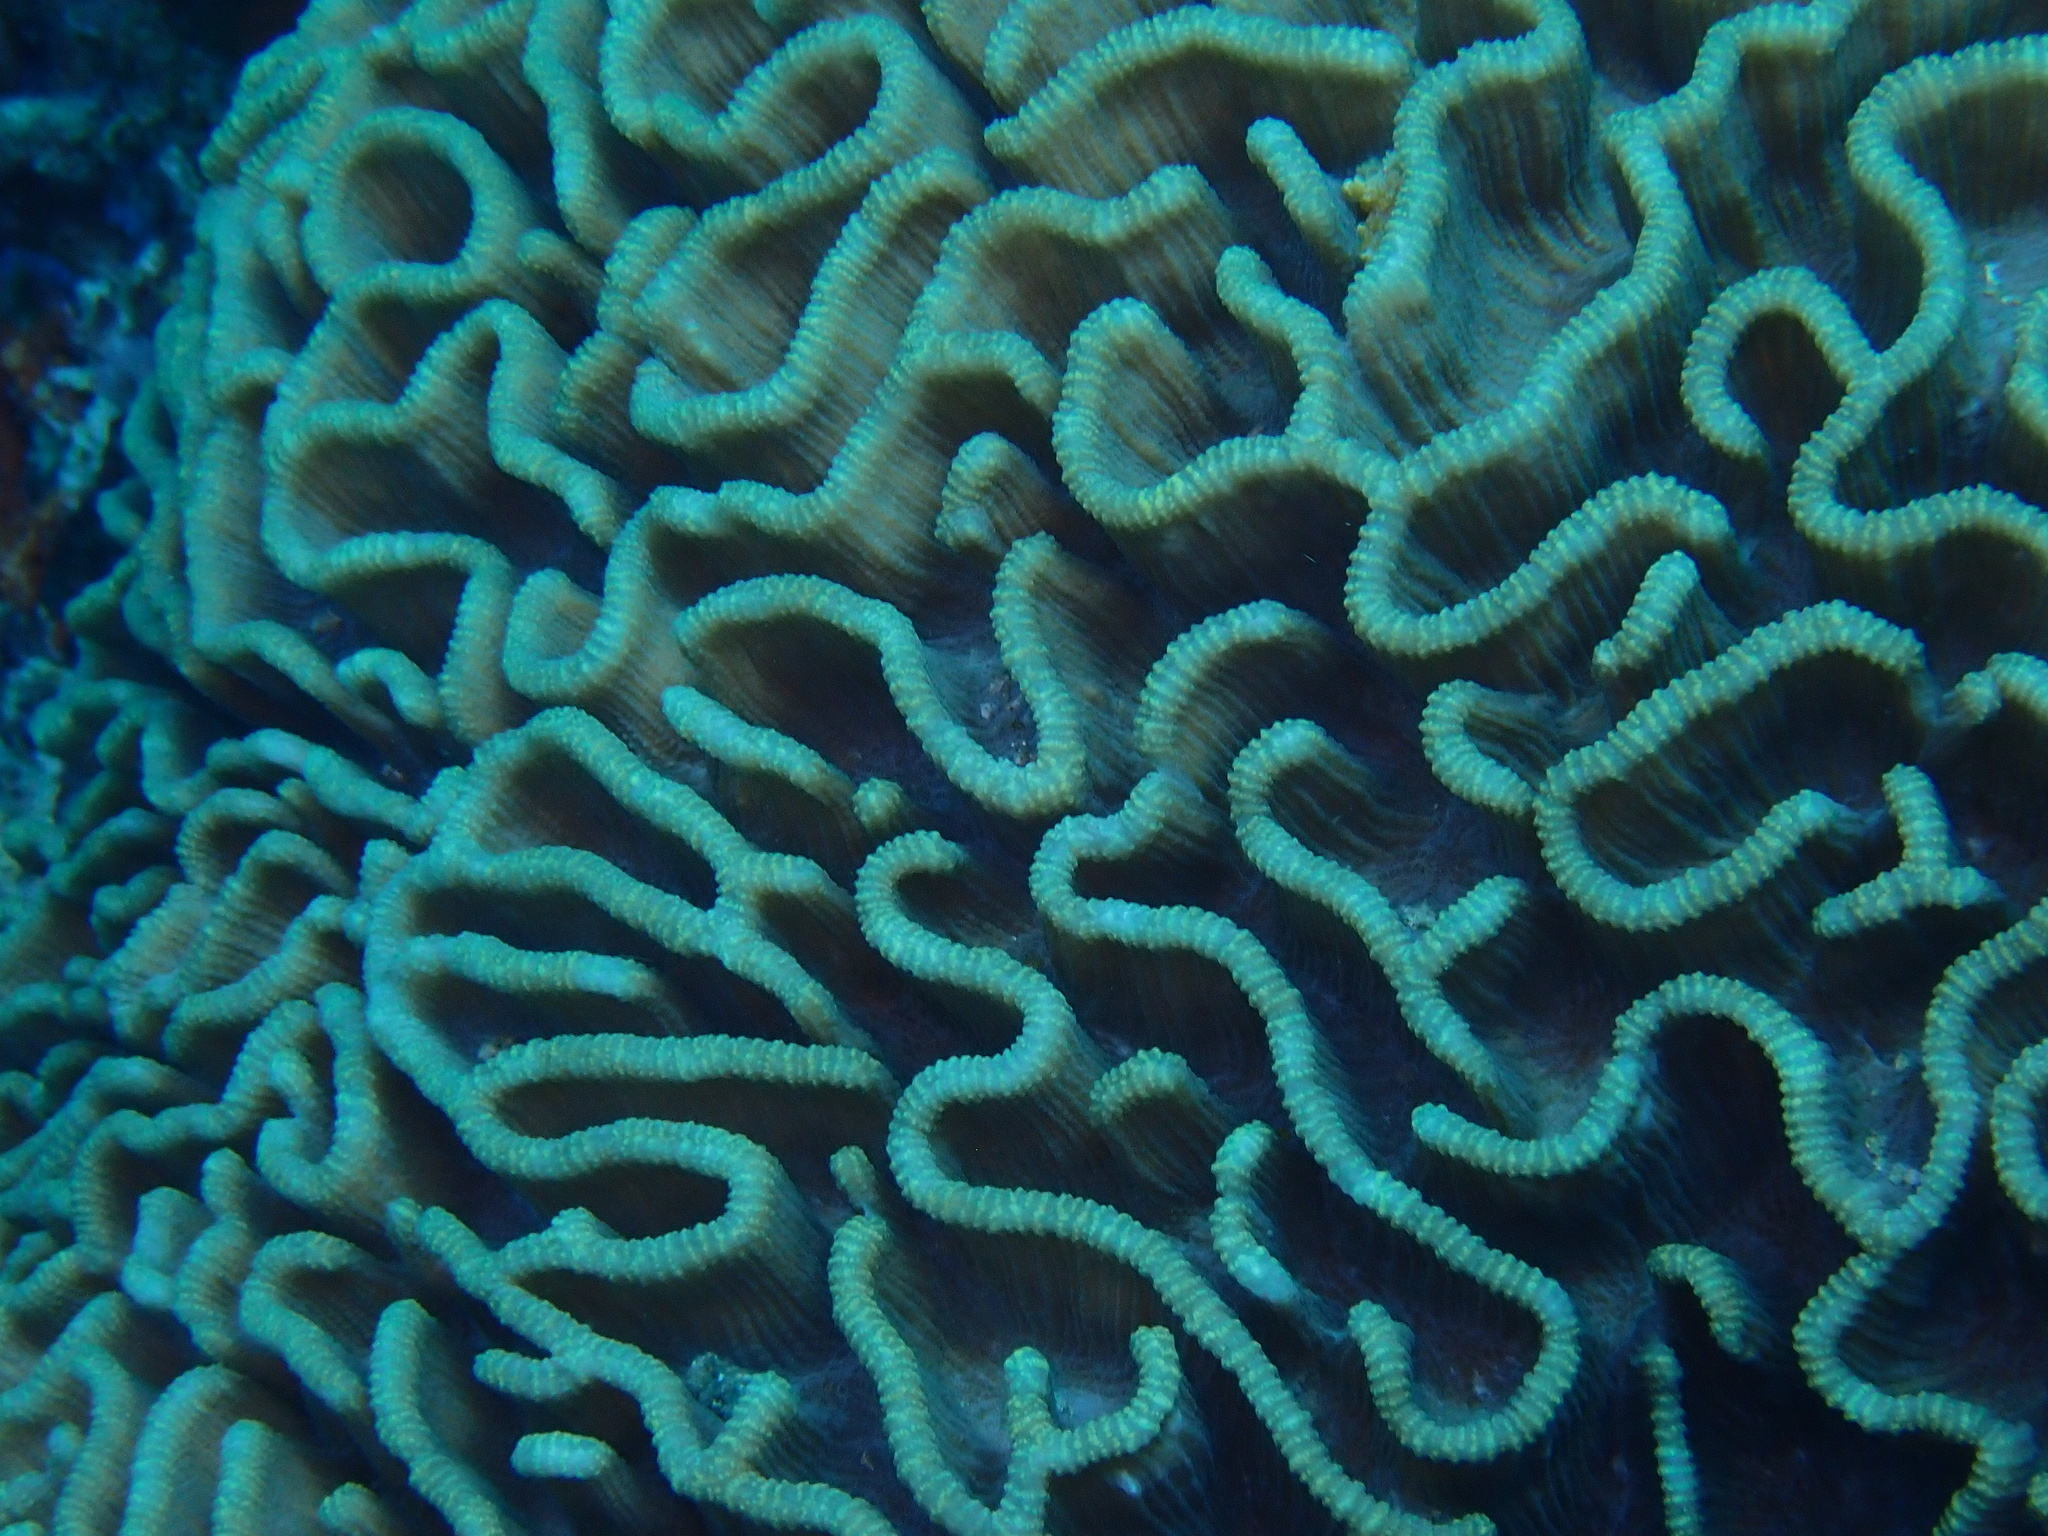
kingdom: Animalia
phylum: Cnidaria
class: Anthozoa
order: Scleractinia
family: Merulinidae
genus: Pectinia
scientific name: Pectinia lactuca
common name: Common lettuce coral
